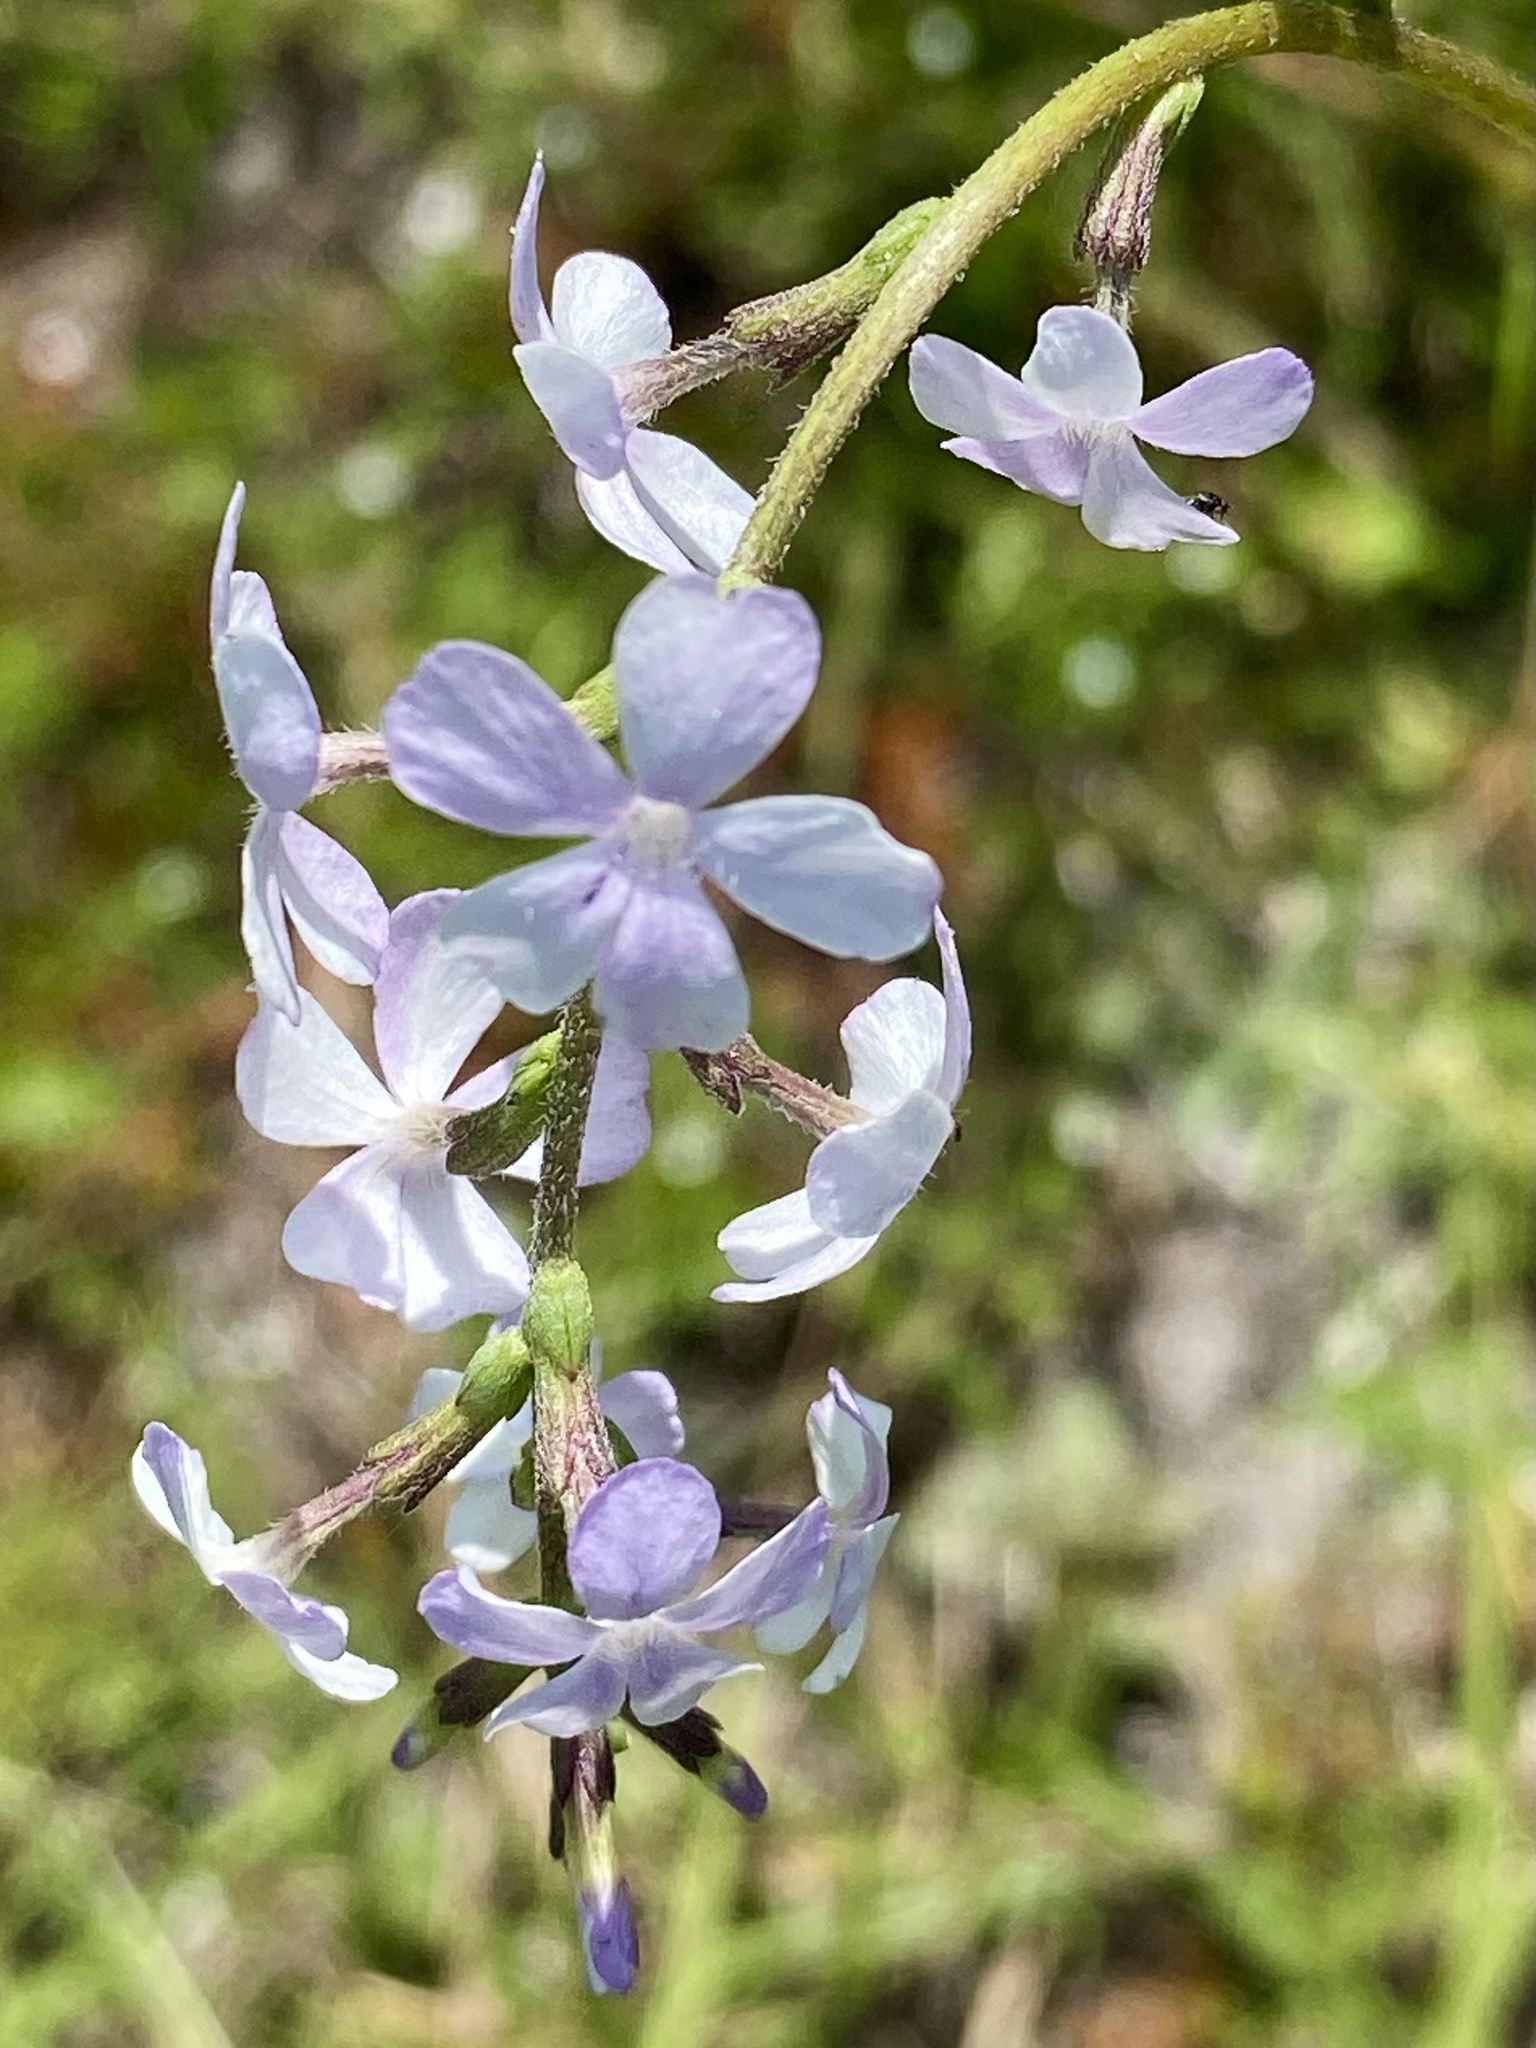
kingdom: Plantae
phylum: Tracheophyta
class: Magnoliopsida
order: Lamiales
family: Orobanchaceae
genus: Buchnera
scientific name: Buchnera floridana
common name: Florida bluehearts
